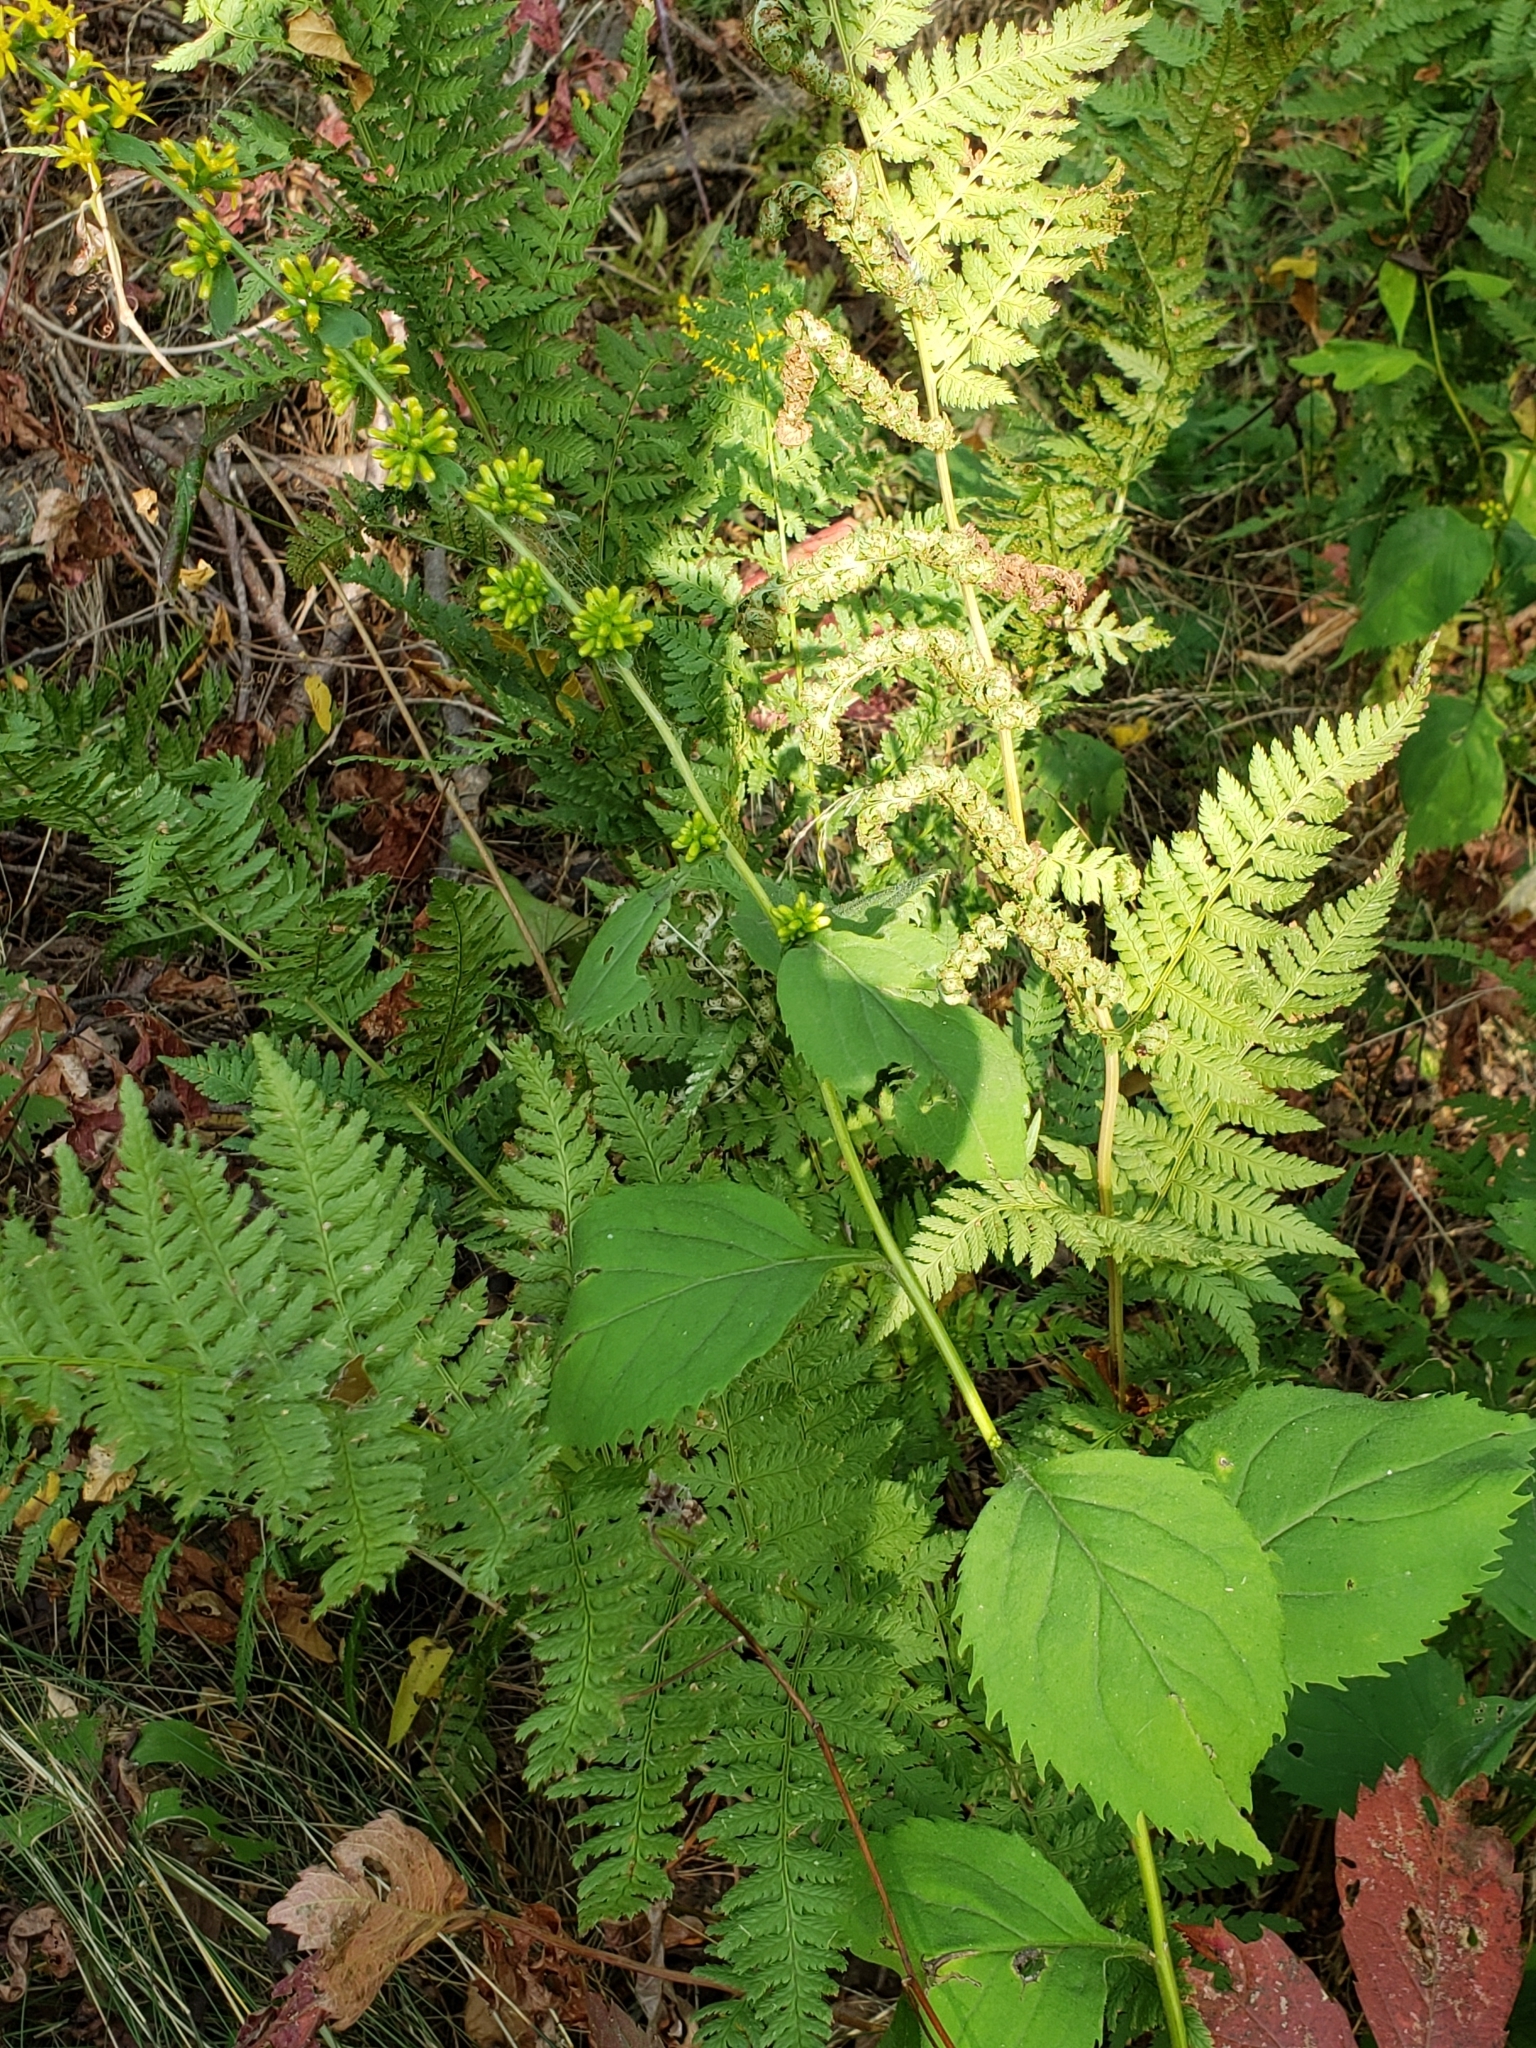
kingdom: Plantae
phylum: Tracheophyta
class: Magnoliopsida
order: Asterales
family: Asteraceae
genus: Solidago
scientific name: Solidago flexicaulis
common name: Zig-zag goldenrod
